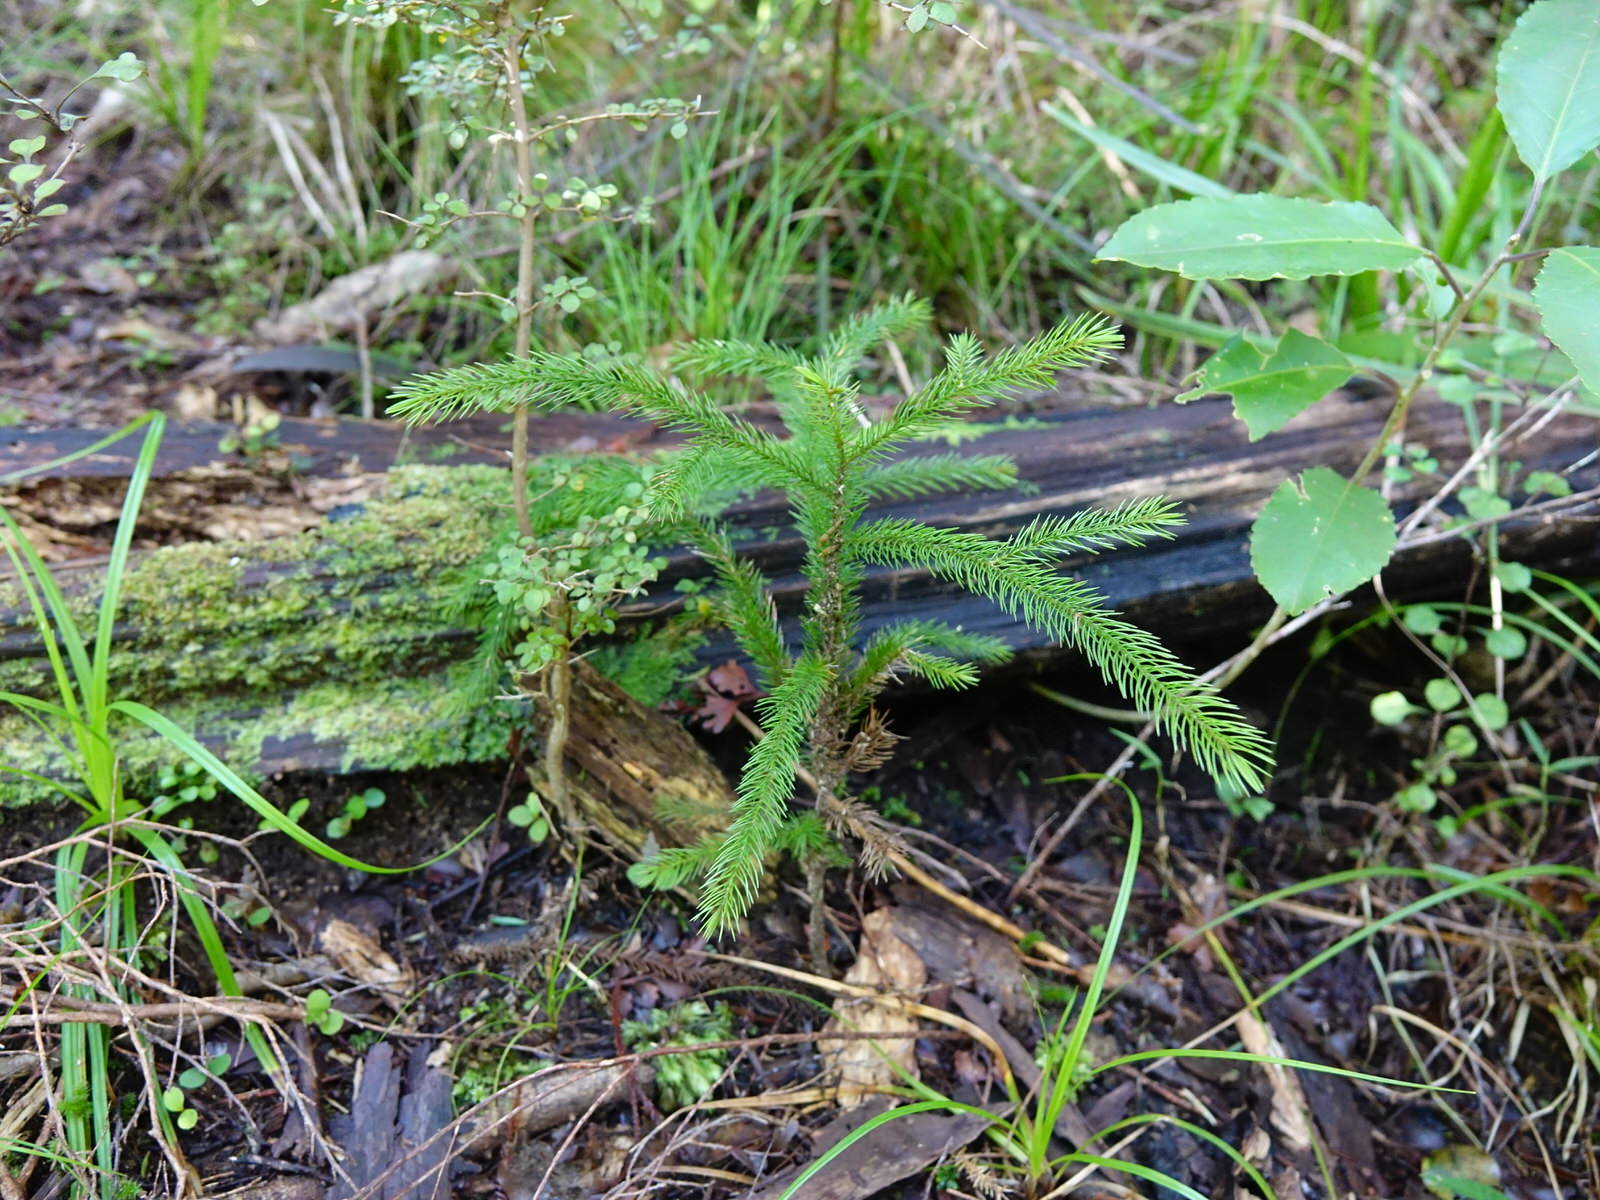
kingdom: Plantae
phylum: Tracheophyta
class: Pinopsida
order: Pinales
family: Podocarpaceae
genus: Dacrydium
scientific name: Dacrydium cupressinum
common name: Red pine
